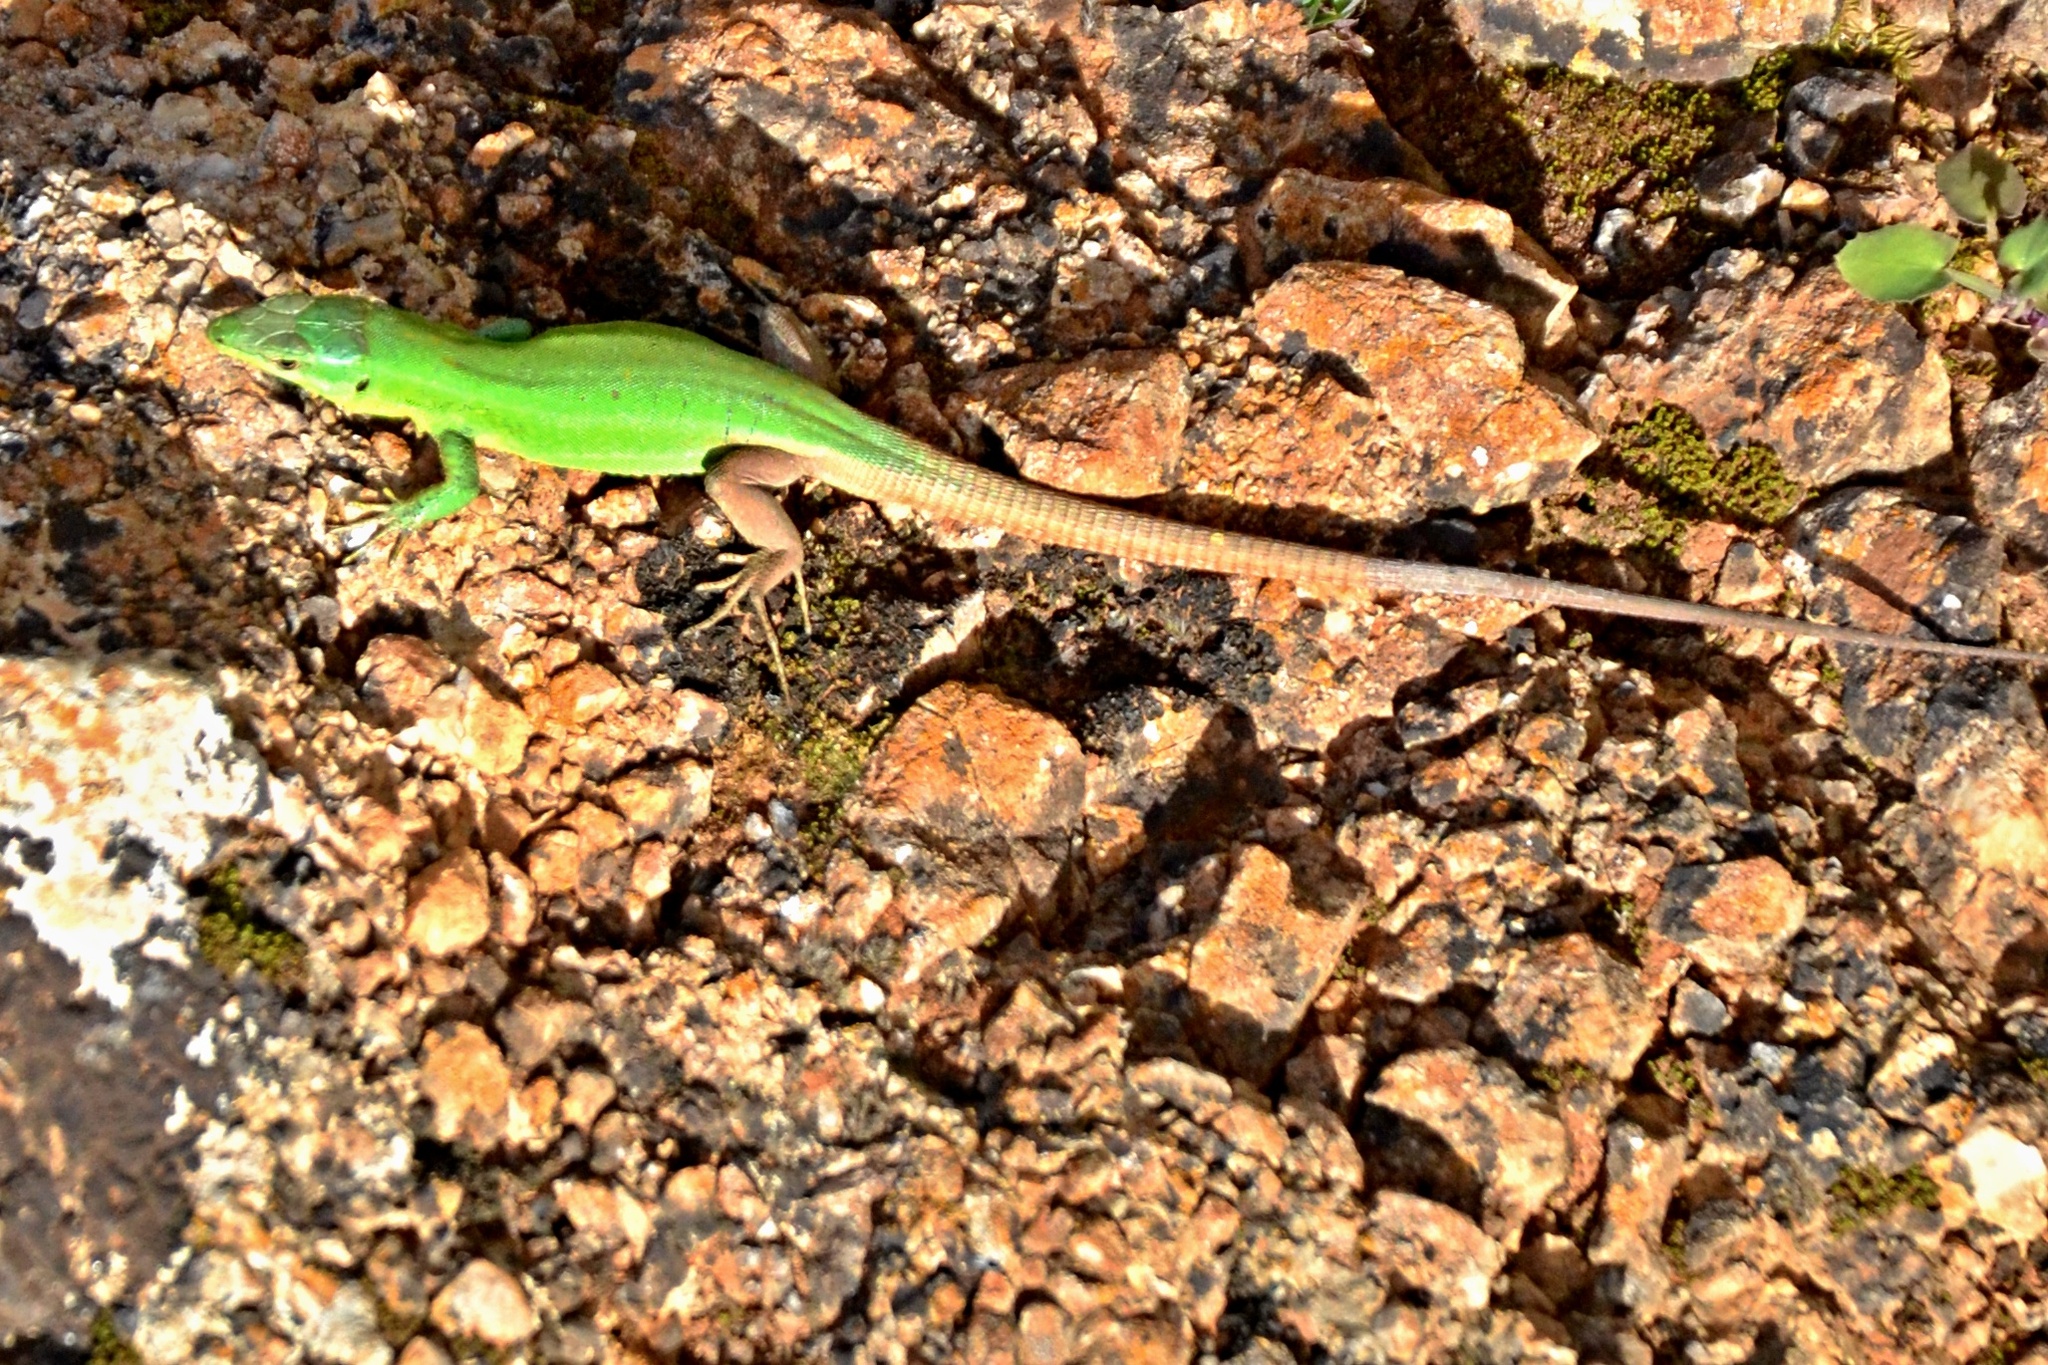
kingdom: Animalia
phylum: Chordata
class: Squamata
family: Lacertidae
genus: Podarcis
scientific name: Podarcis waglerianus
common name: Sicilian wall lizard
